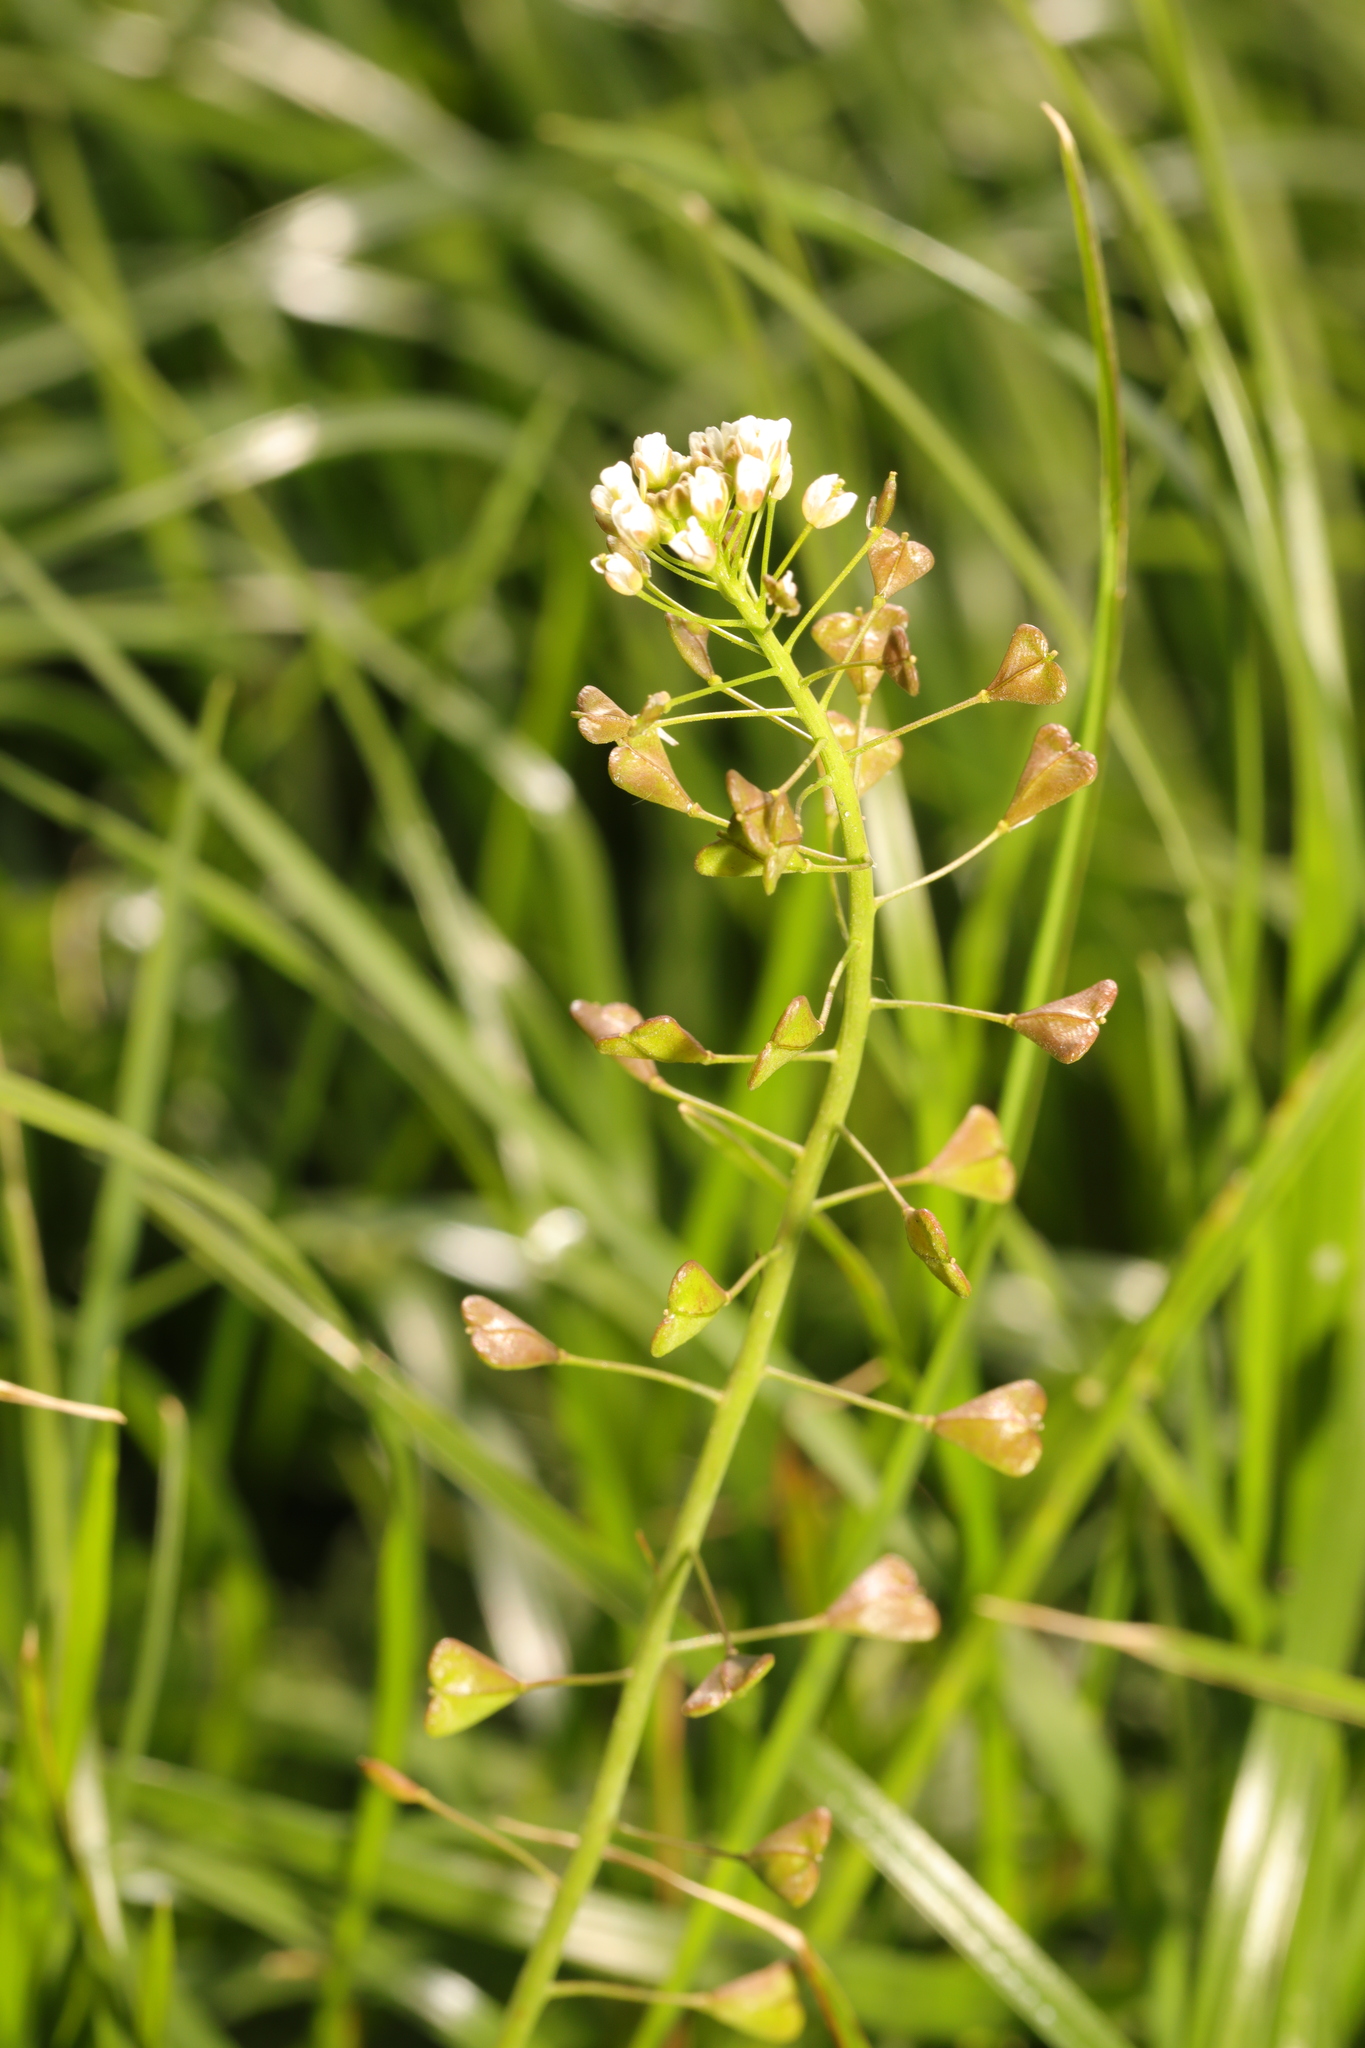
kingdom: Plantae
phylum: Tracheophyta
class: Magnoliopsida
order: Brassicales
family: Brassicaceae
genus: Capsella
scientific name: Capsella bursa-pastoris
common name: Shepherd's purse
